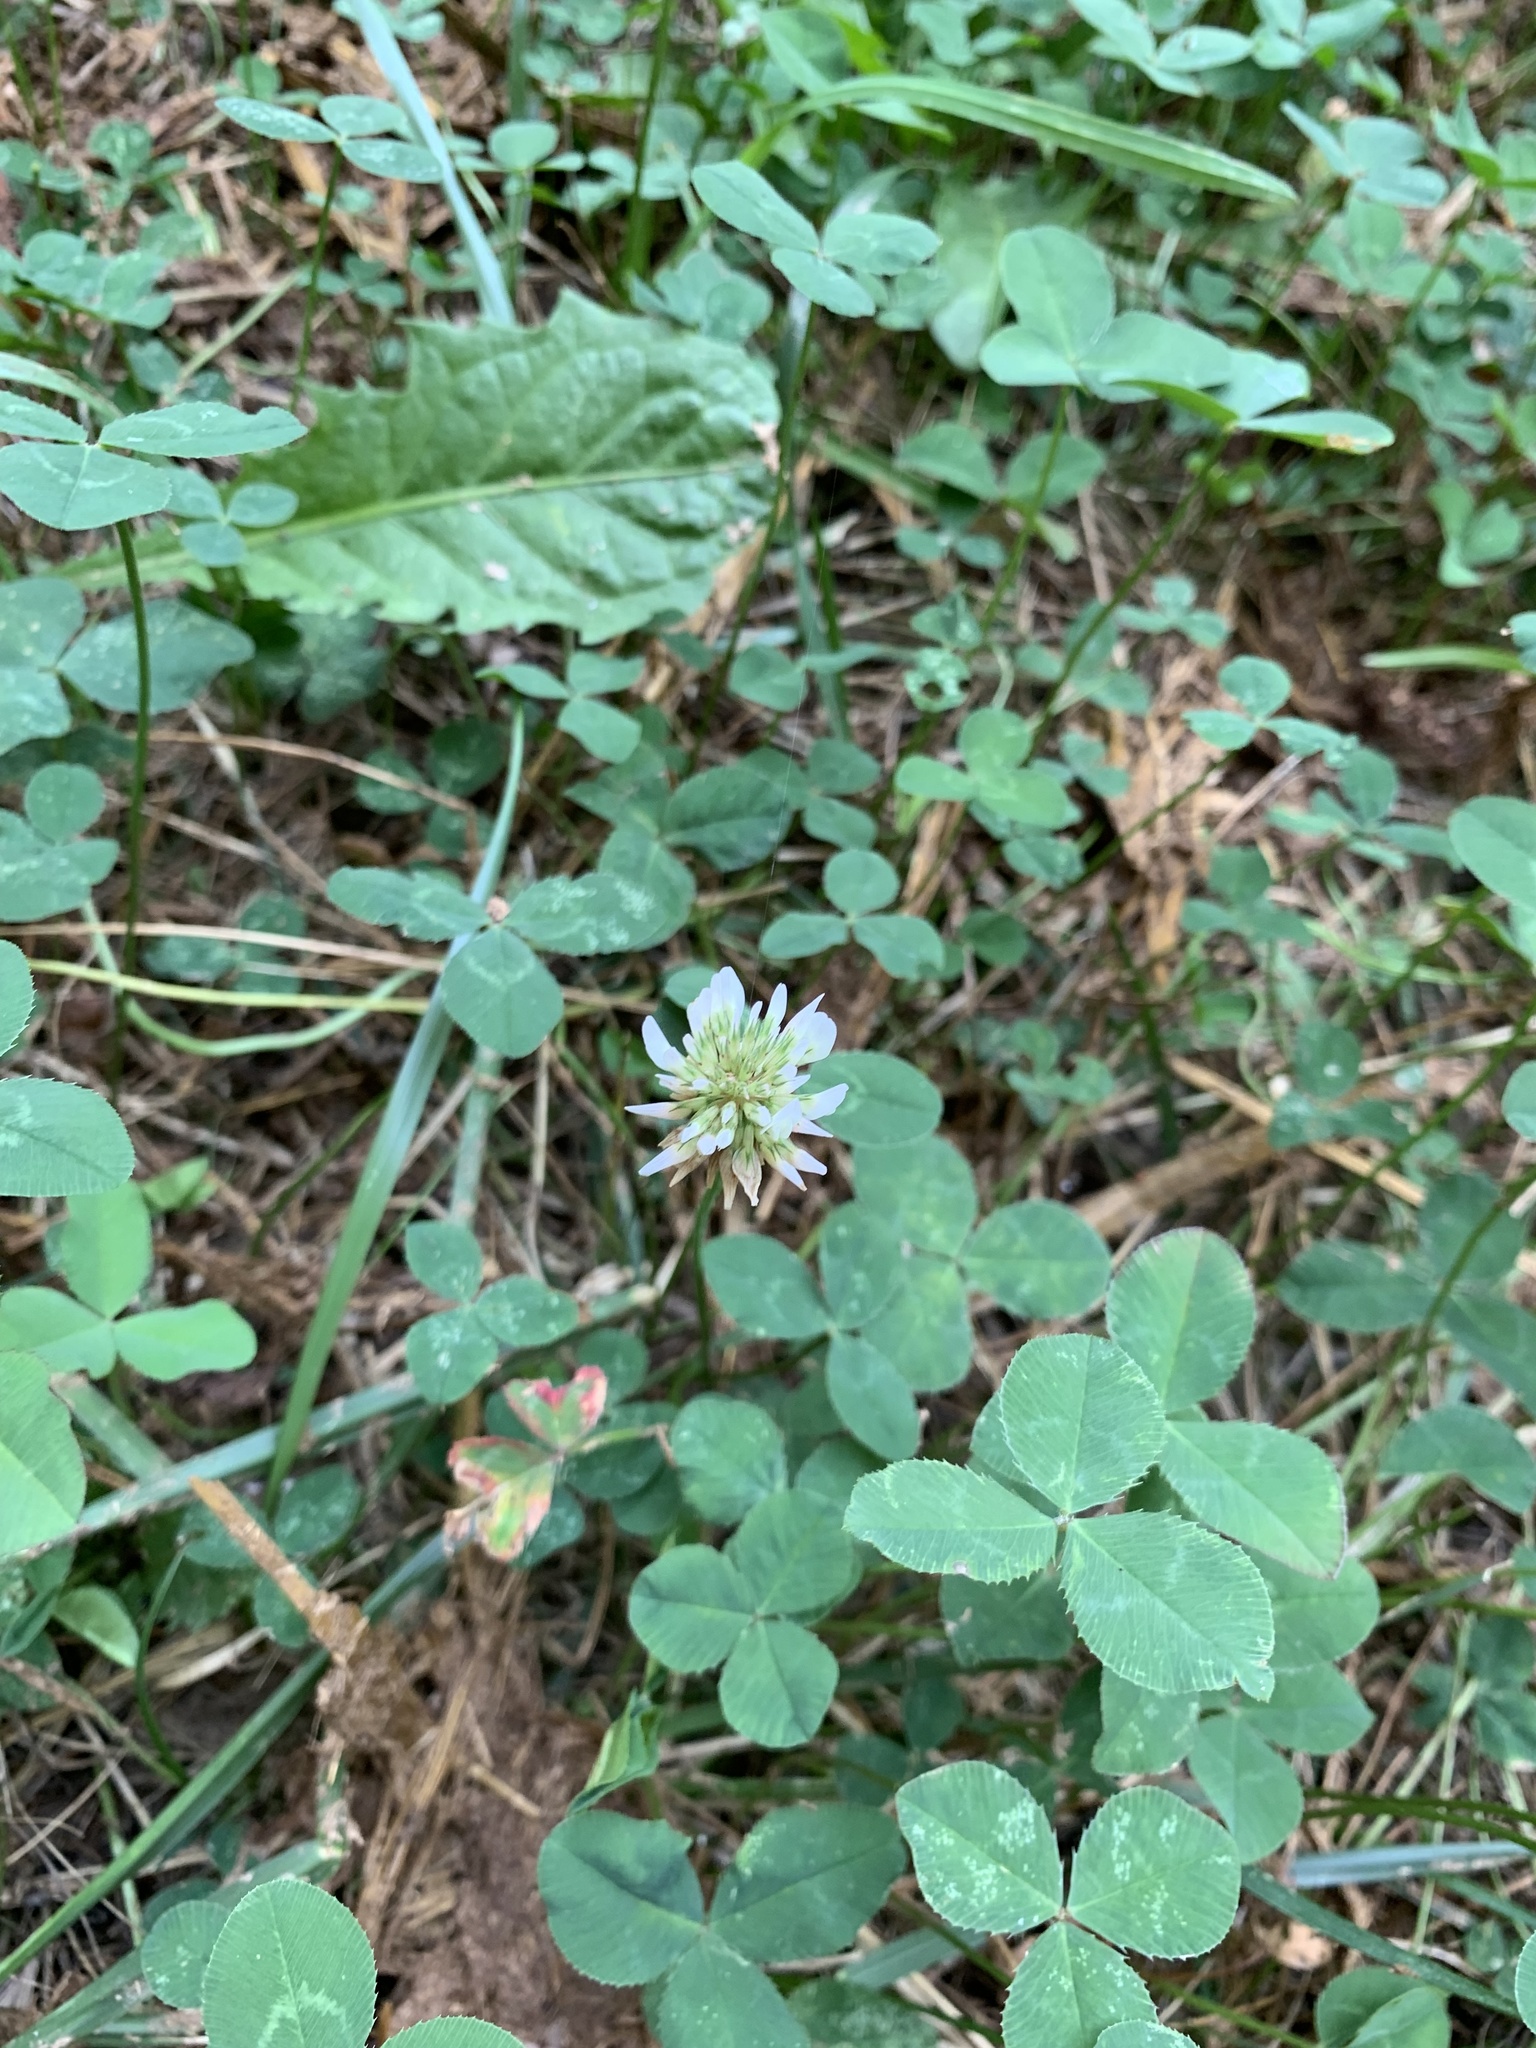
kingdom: Plantae
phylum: Tracheophyta
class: Magnoliopsida
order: Fabales
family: Fabaceae
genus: Trifolium
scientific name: Trifolium repens
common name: White clover
